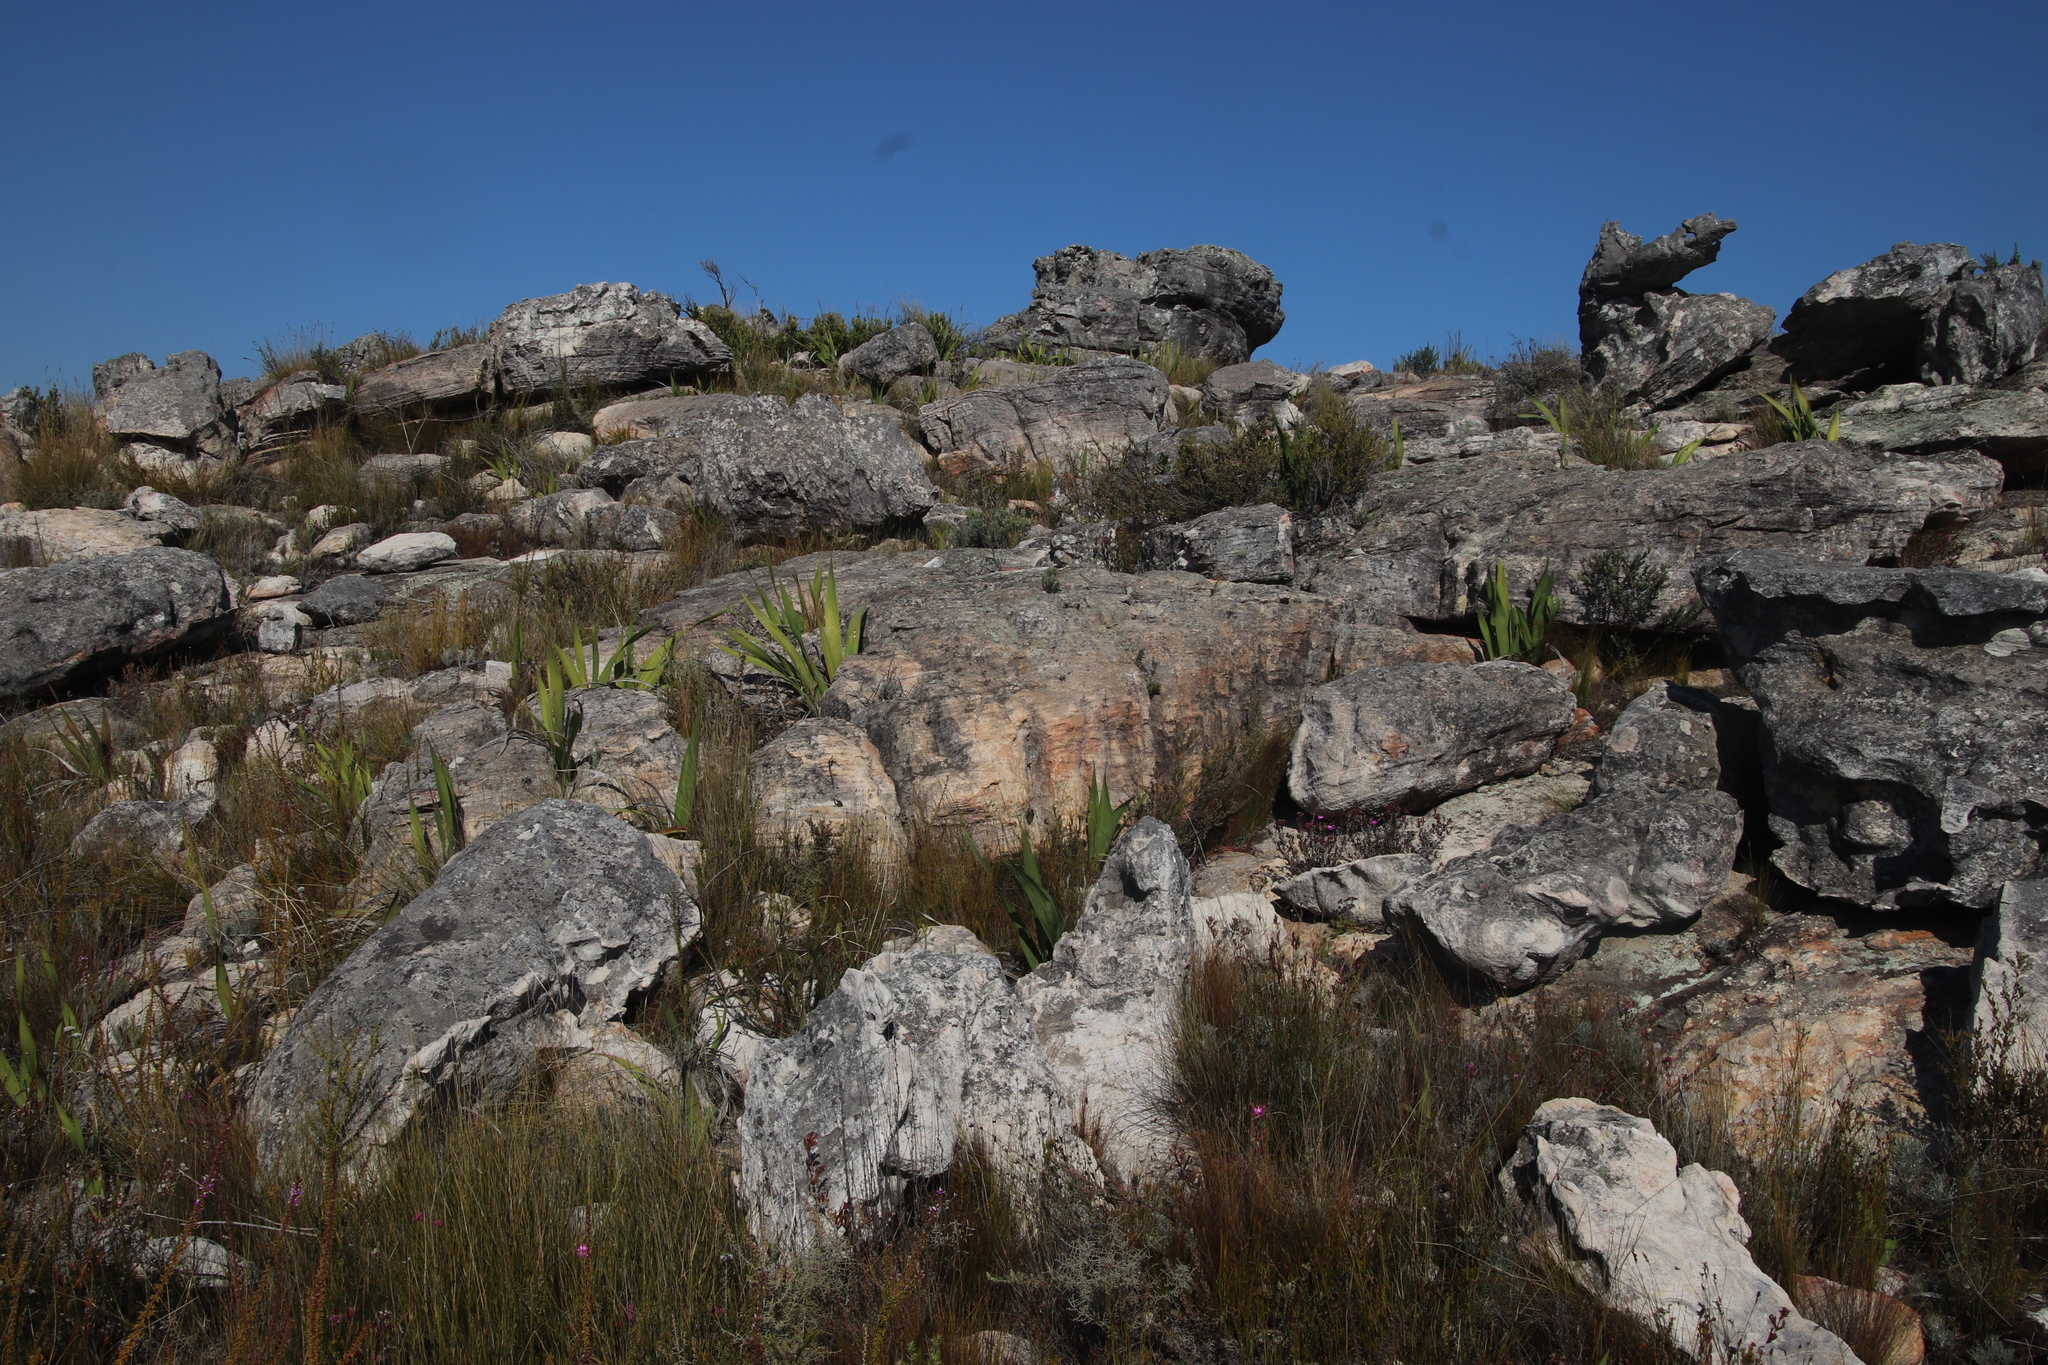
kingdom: Plantae
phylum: Tracheophyta
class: Liliopsida
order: Asparagales
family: Iridaceae
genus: Watsonia
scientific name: Watsonia vanderspuyae
